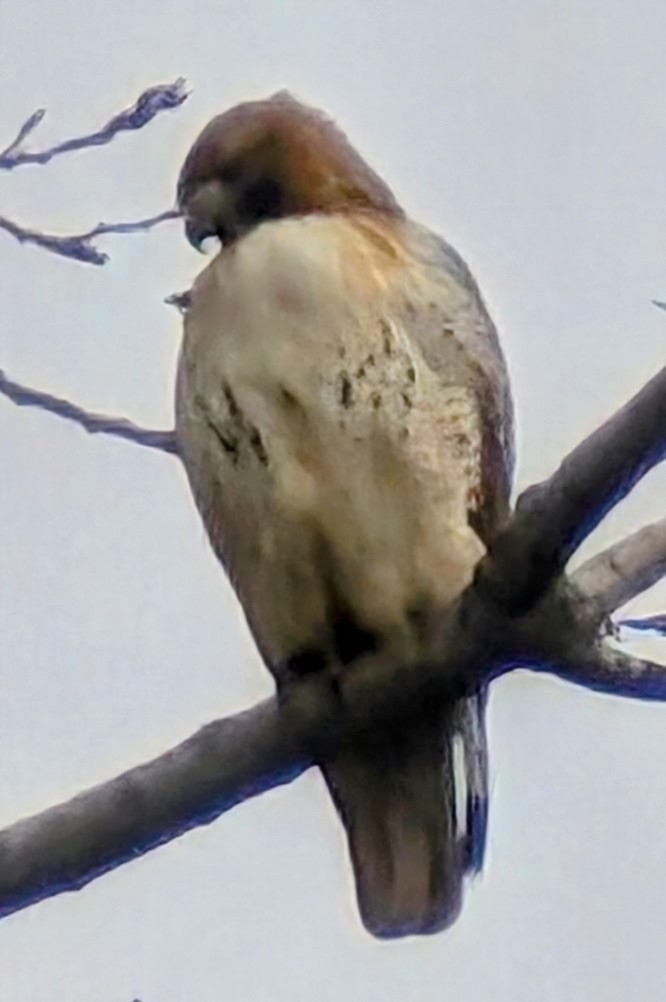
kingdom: Animalia
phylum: Chordata
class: Aves
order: Accipitriformes
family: Accipitridae
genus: Buteo
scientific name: Buteo jamaicensis
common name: Red-tailed hawk
